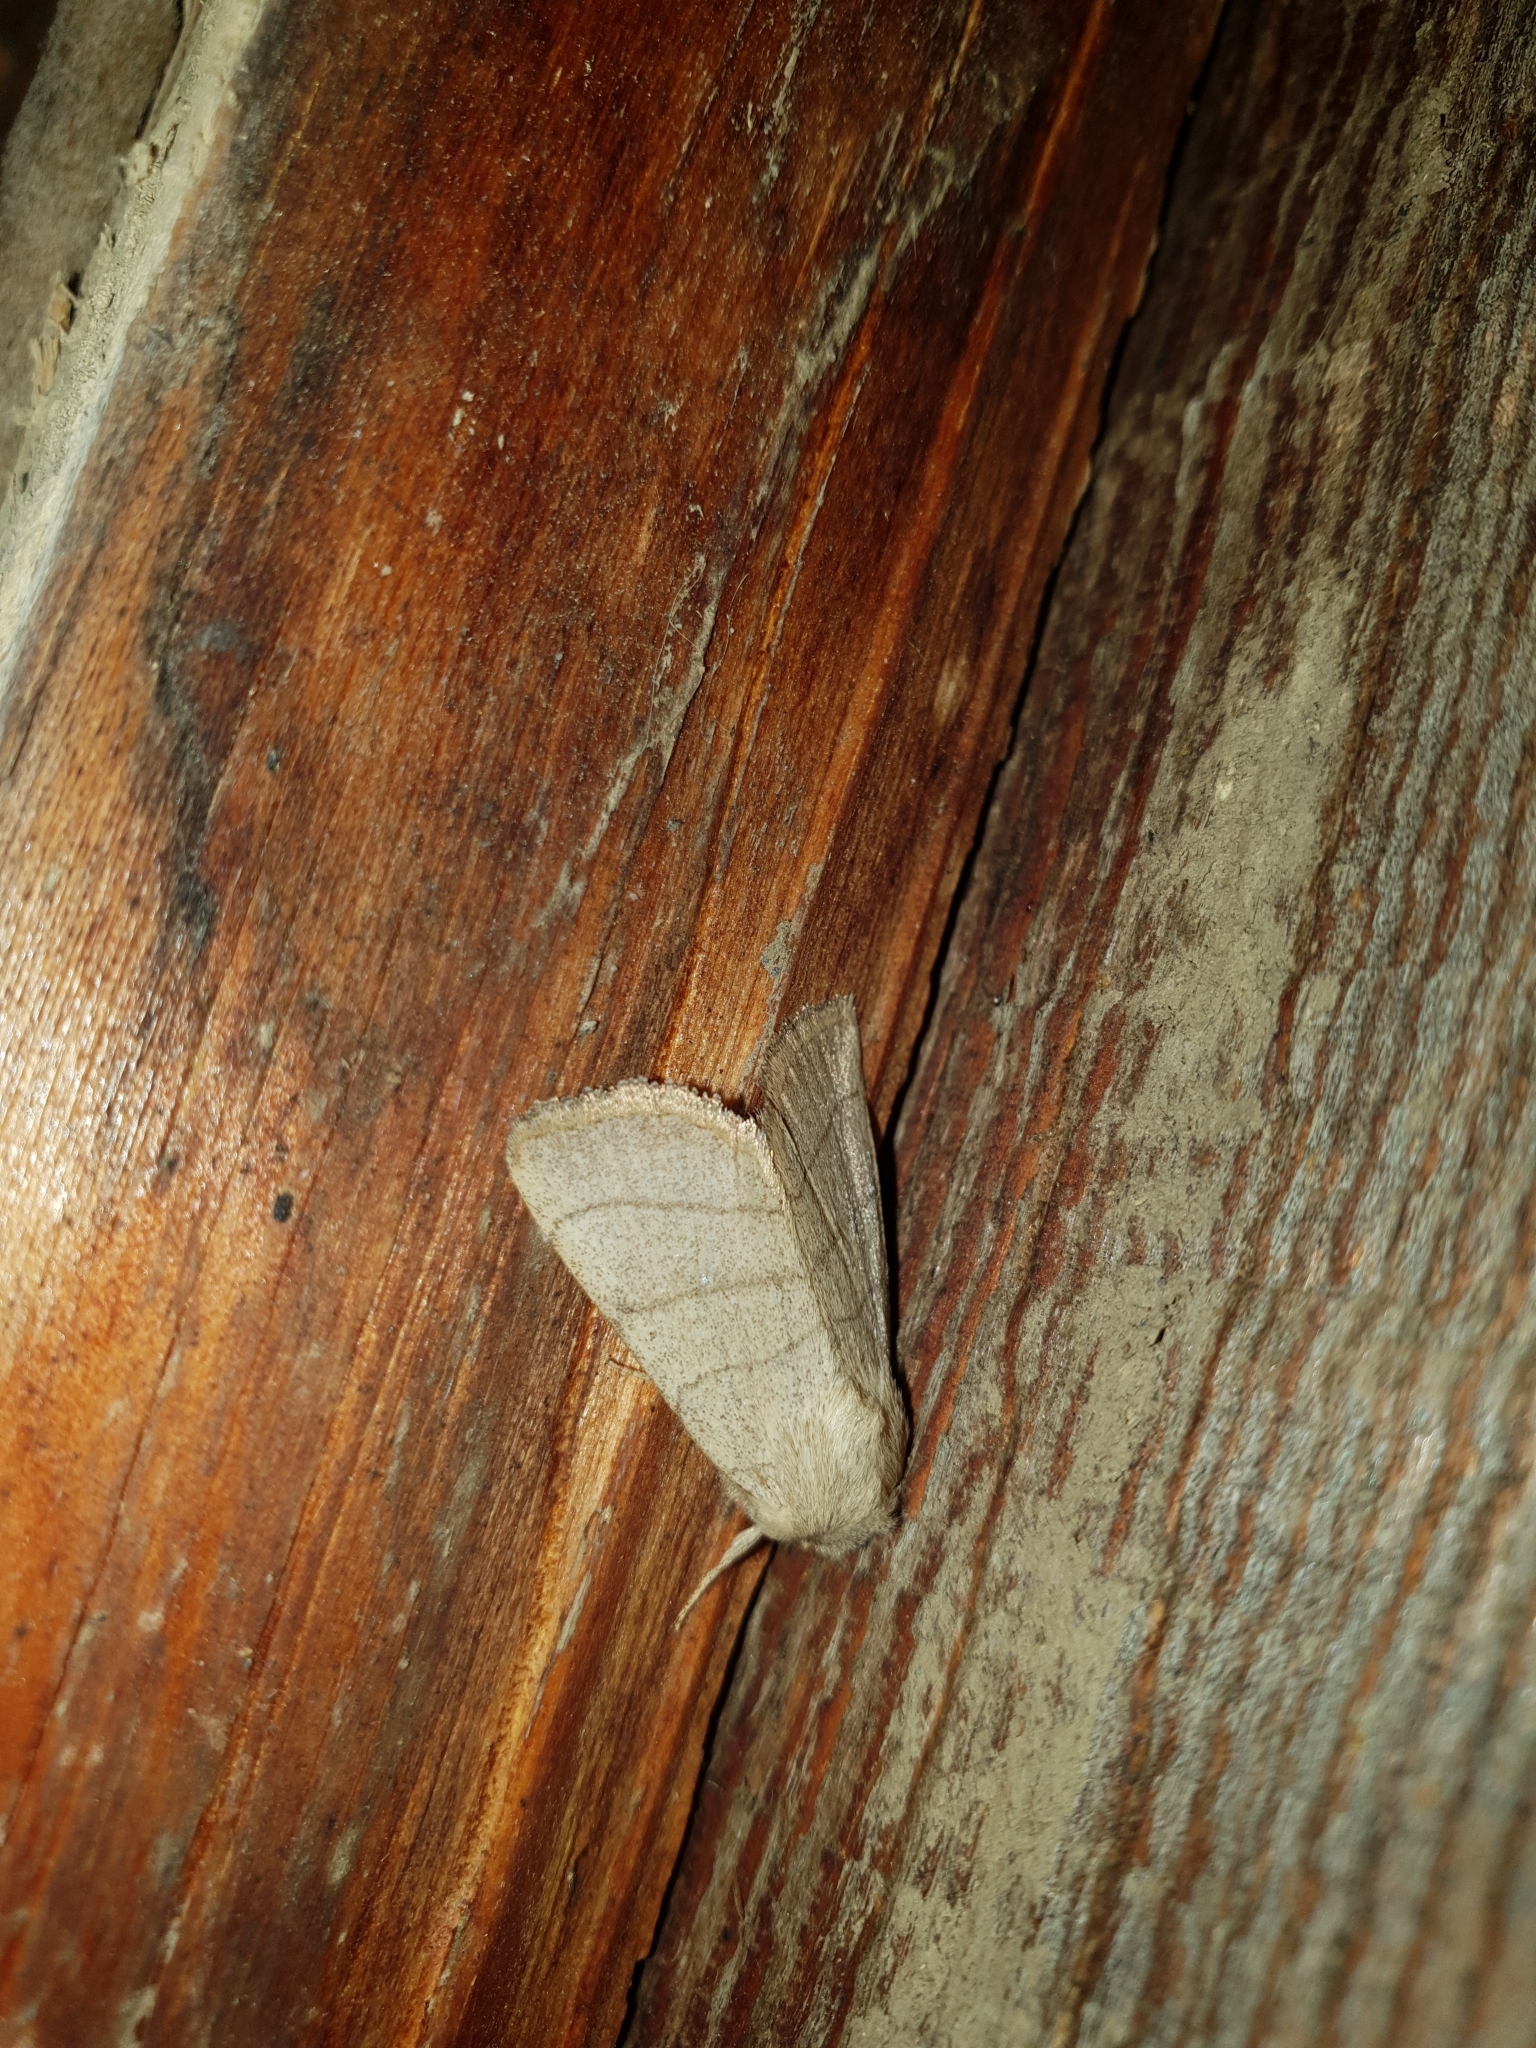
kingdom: Animalia
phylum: Arthropoda
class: Insecta
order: Lepidoptera
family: Noctuidae
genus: Charanyca
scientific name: Charanyca trigrammica
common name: Treble lines
